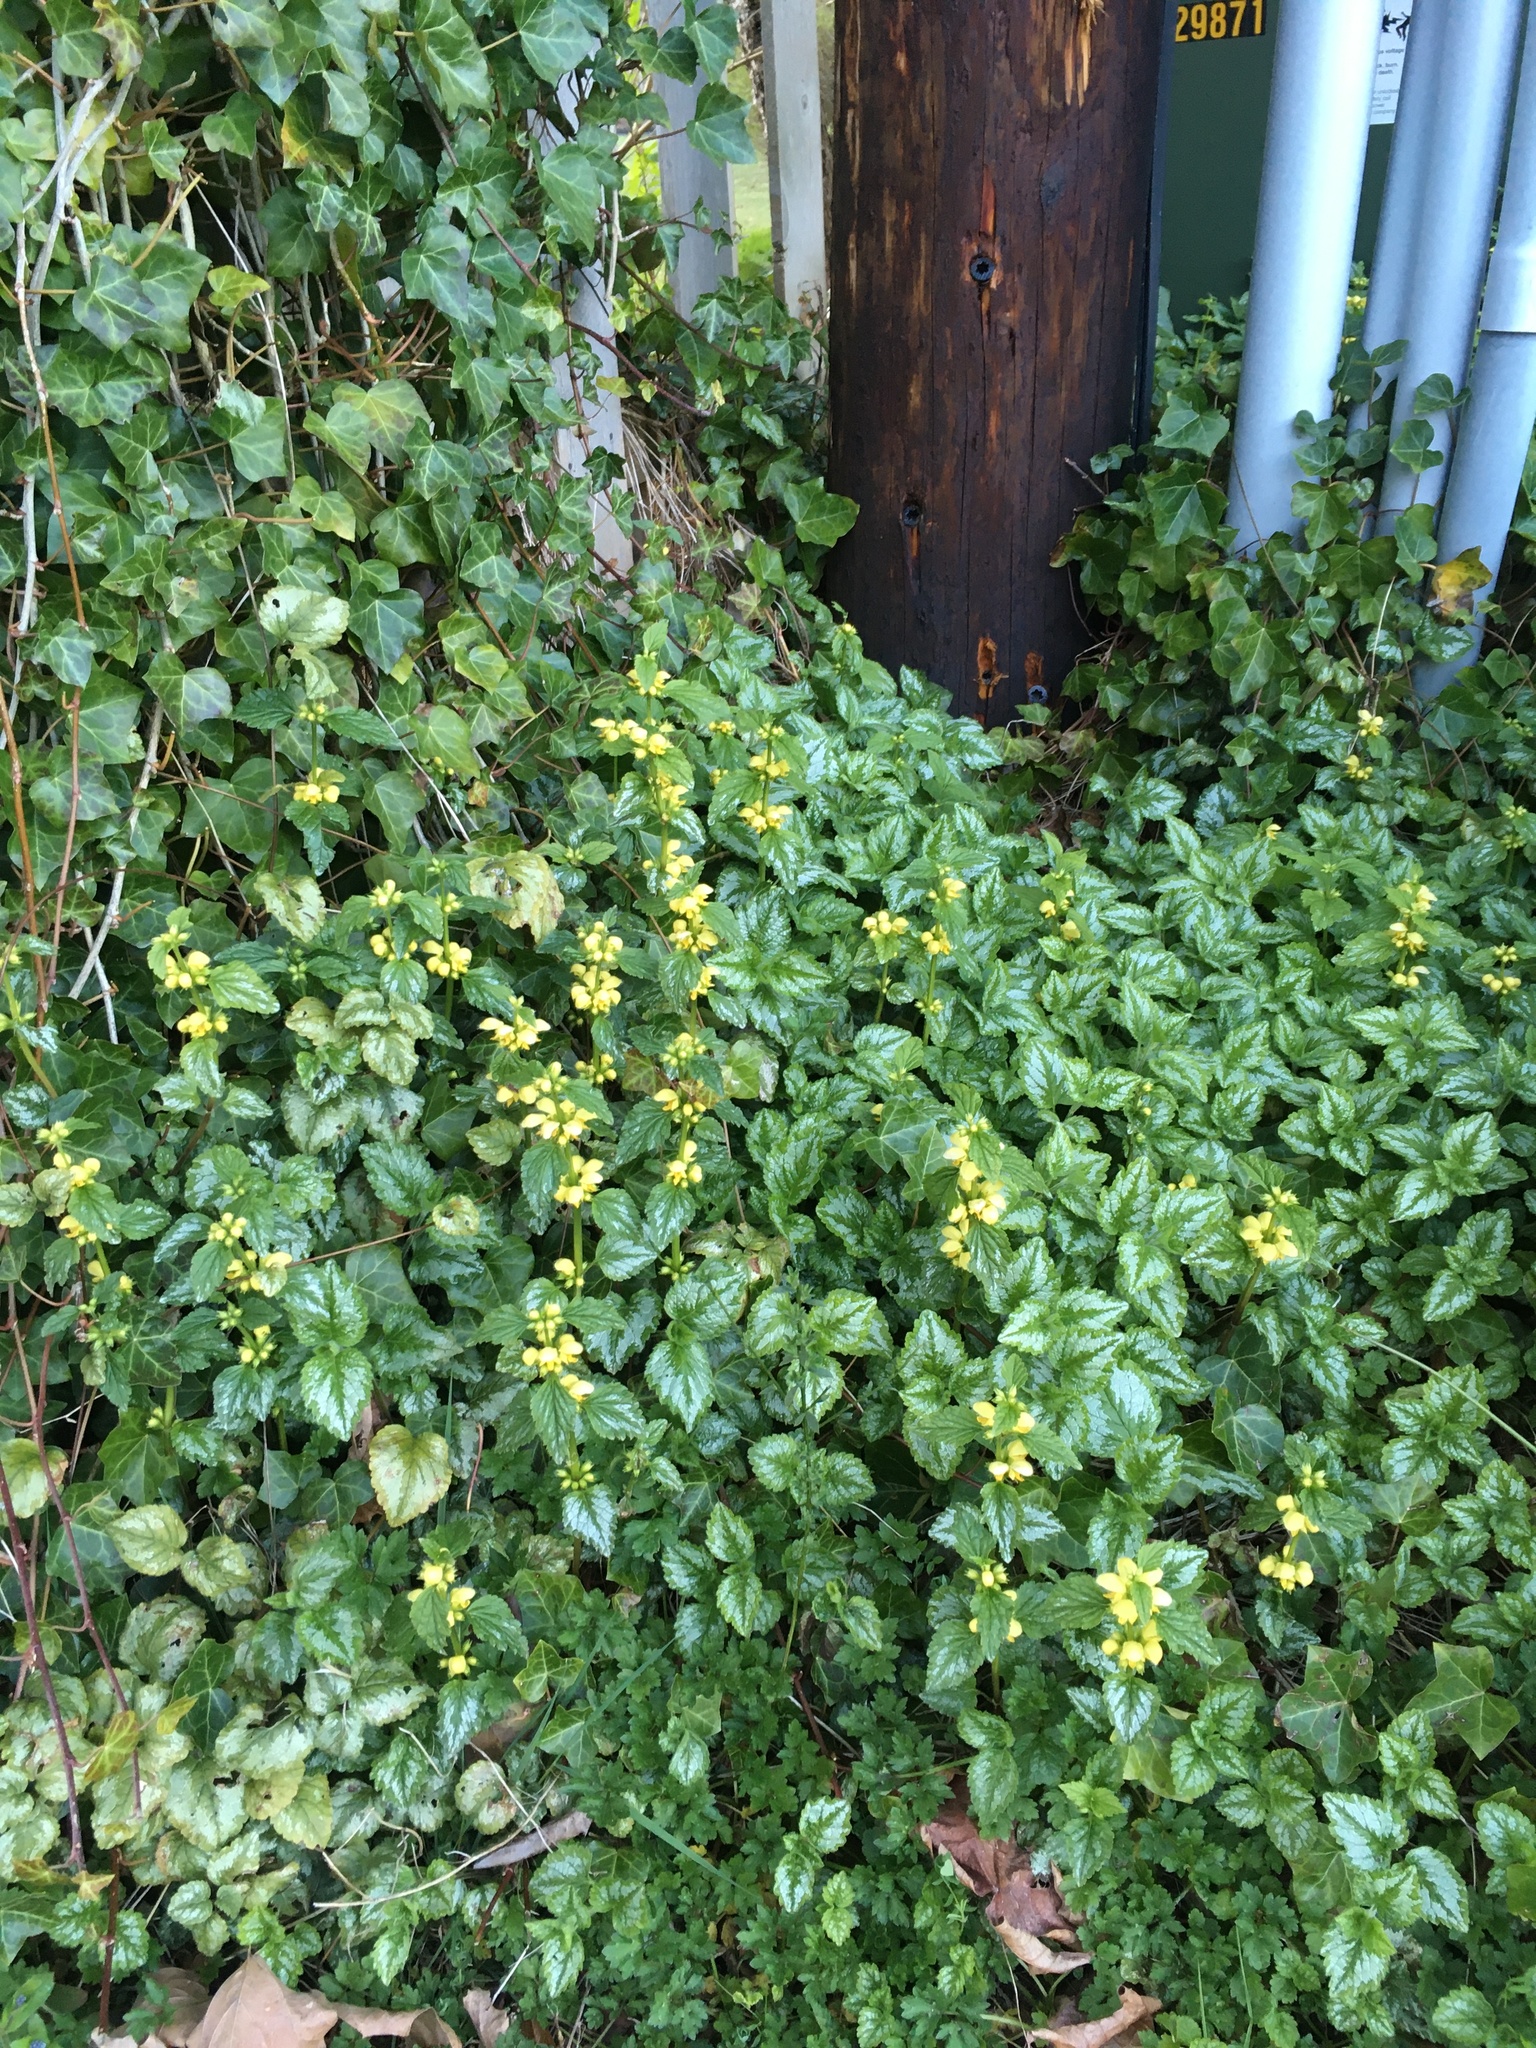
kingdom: Plantae
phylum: Tracheophyta
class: Magnoliopsida
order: Lamiales
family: Lamiaceae
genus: Lamium
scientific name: Lamium galeobdolon
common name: Yellow archangel
